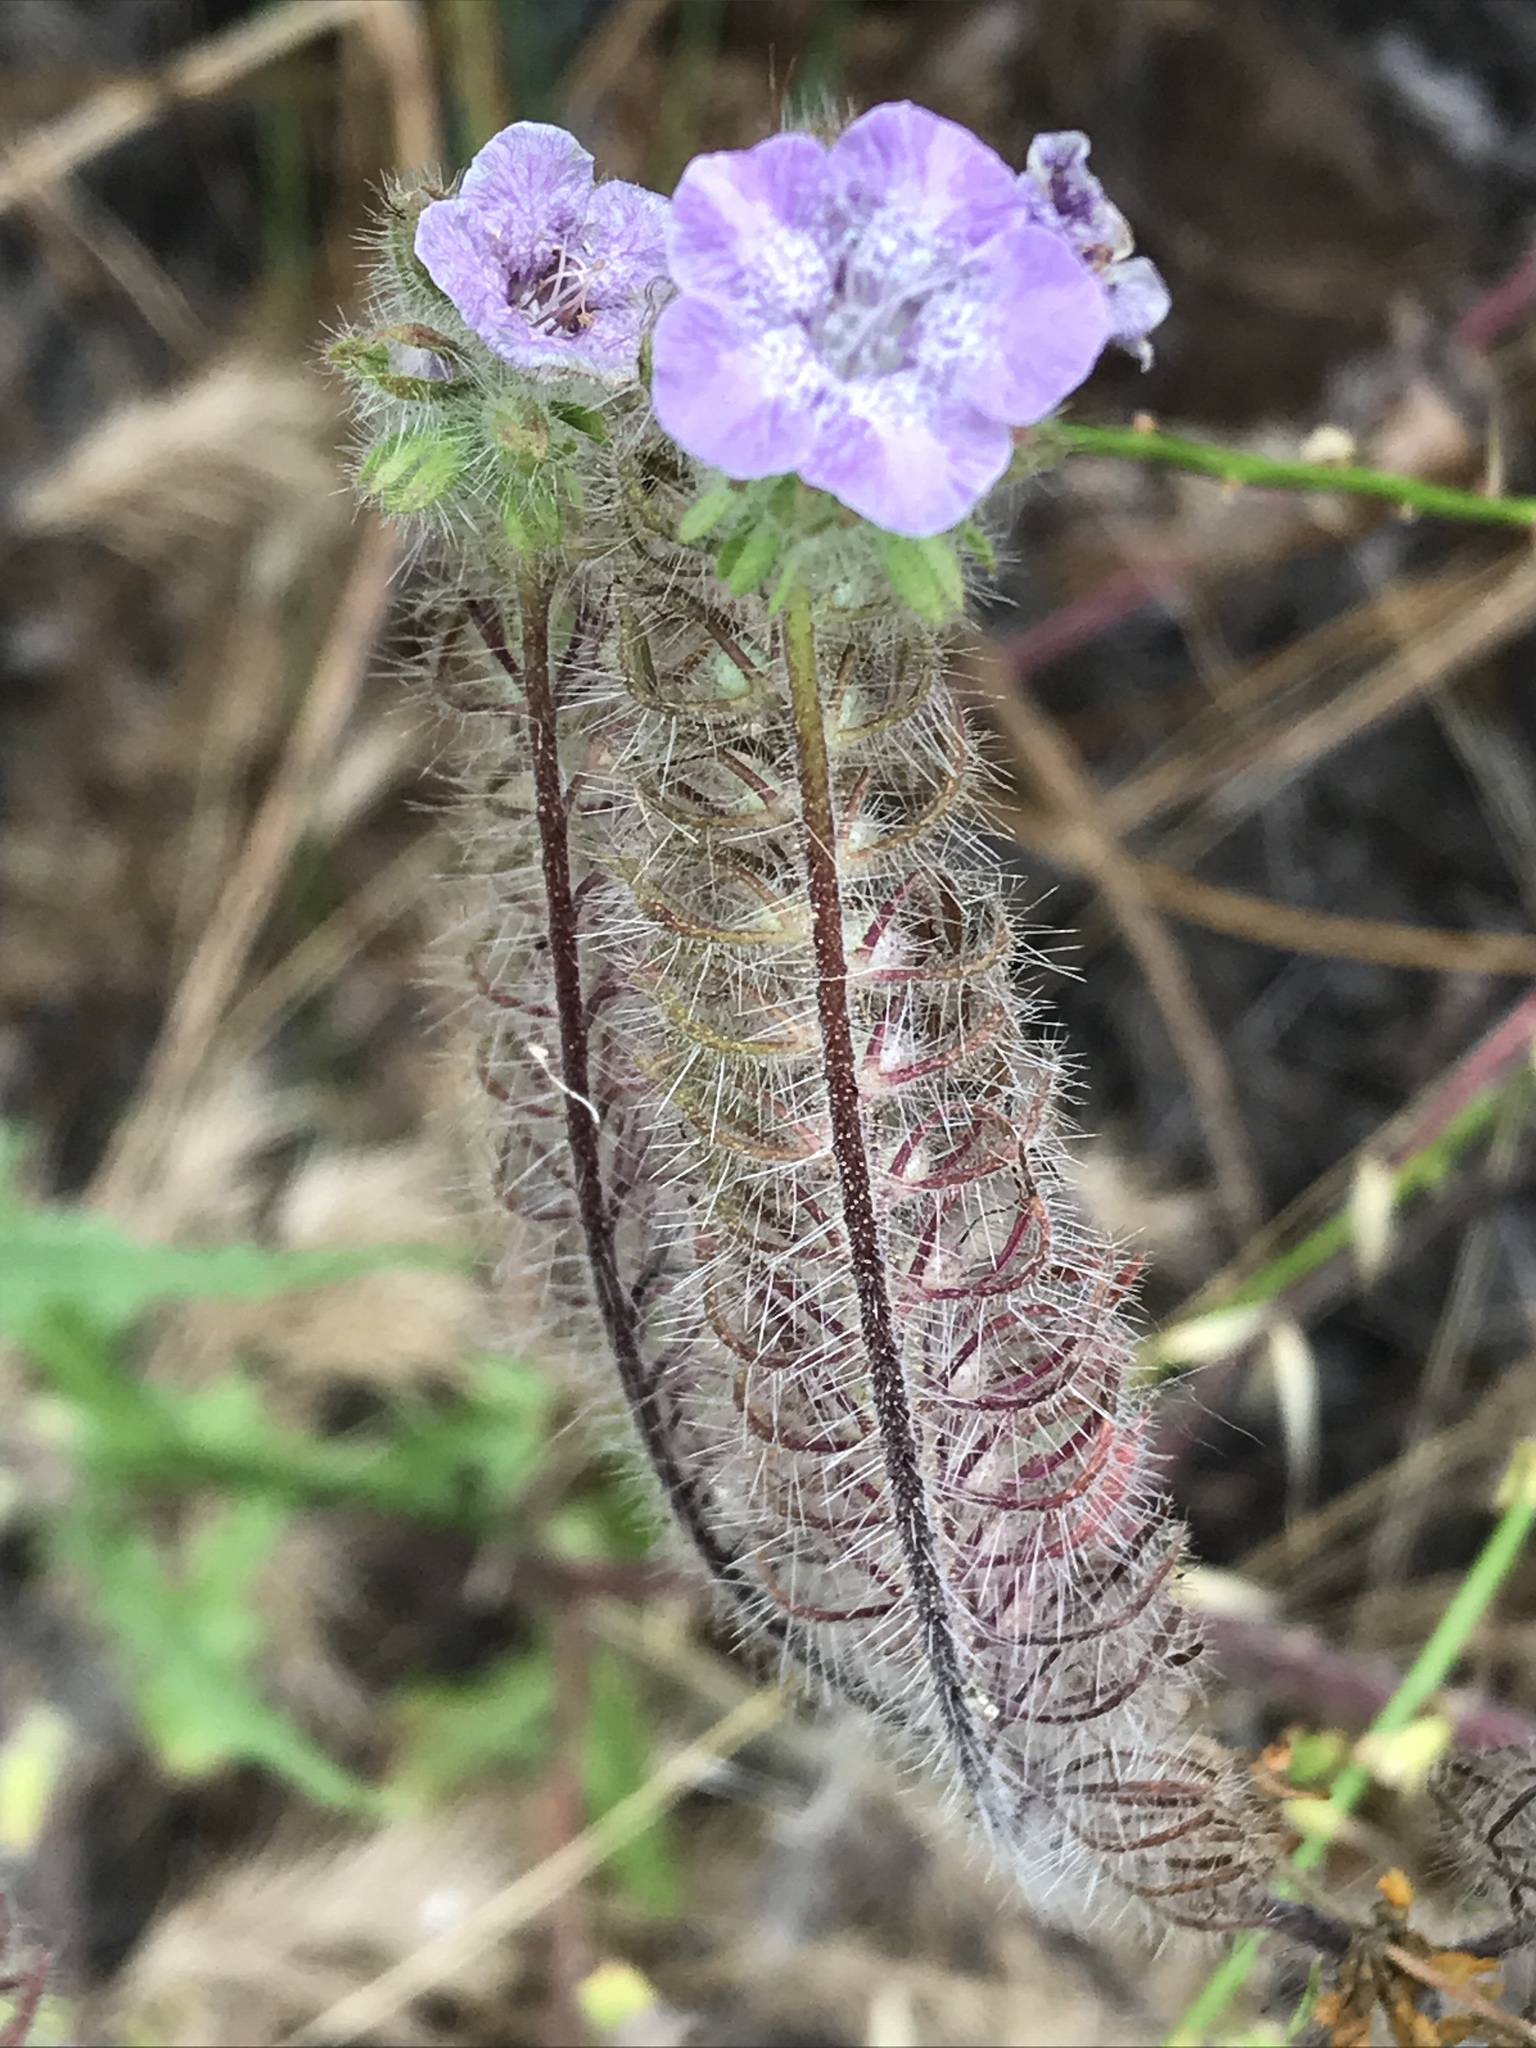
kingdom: Plantae
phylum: Tracheophyta
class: Magnoliopsida
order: Boraginales
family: Hydrophyllaceae
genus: Phacelia
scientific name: Phacelia cicutaria
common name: Caterpillar phacelia
